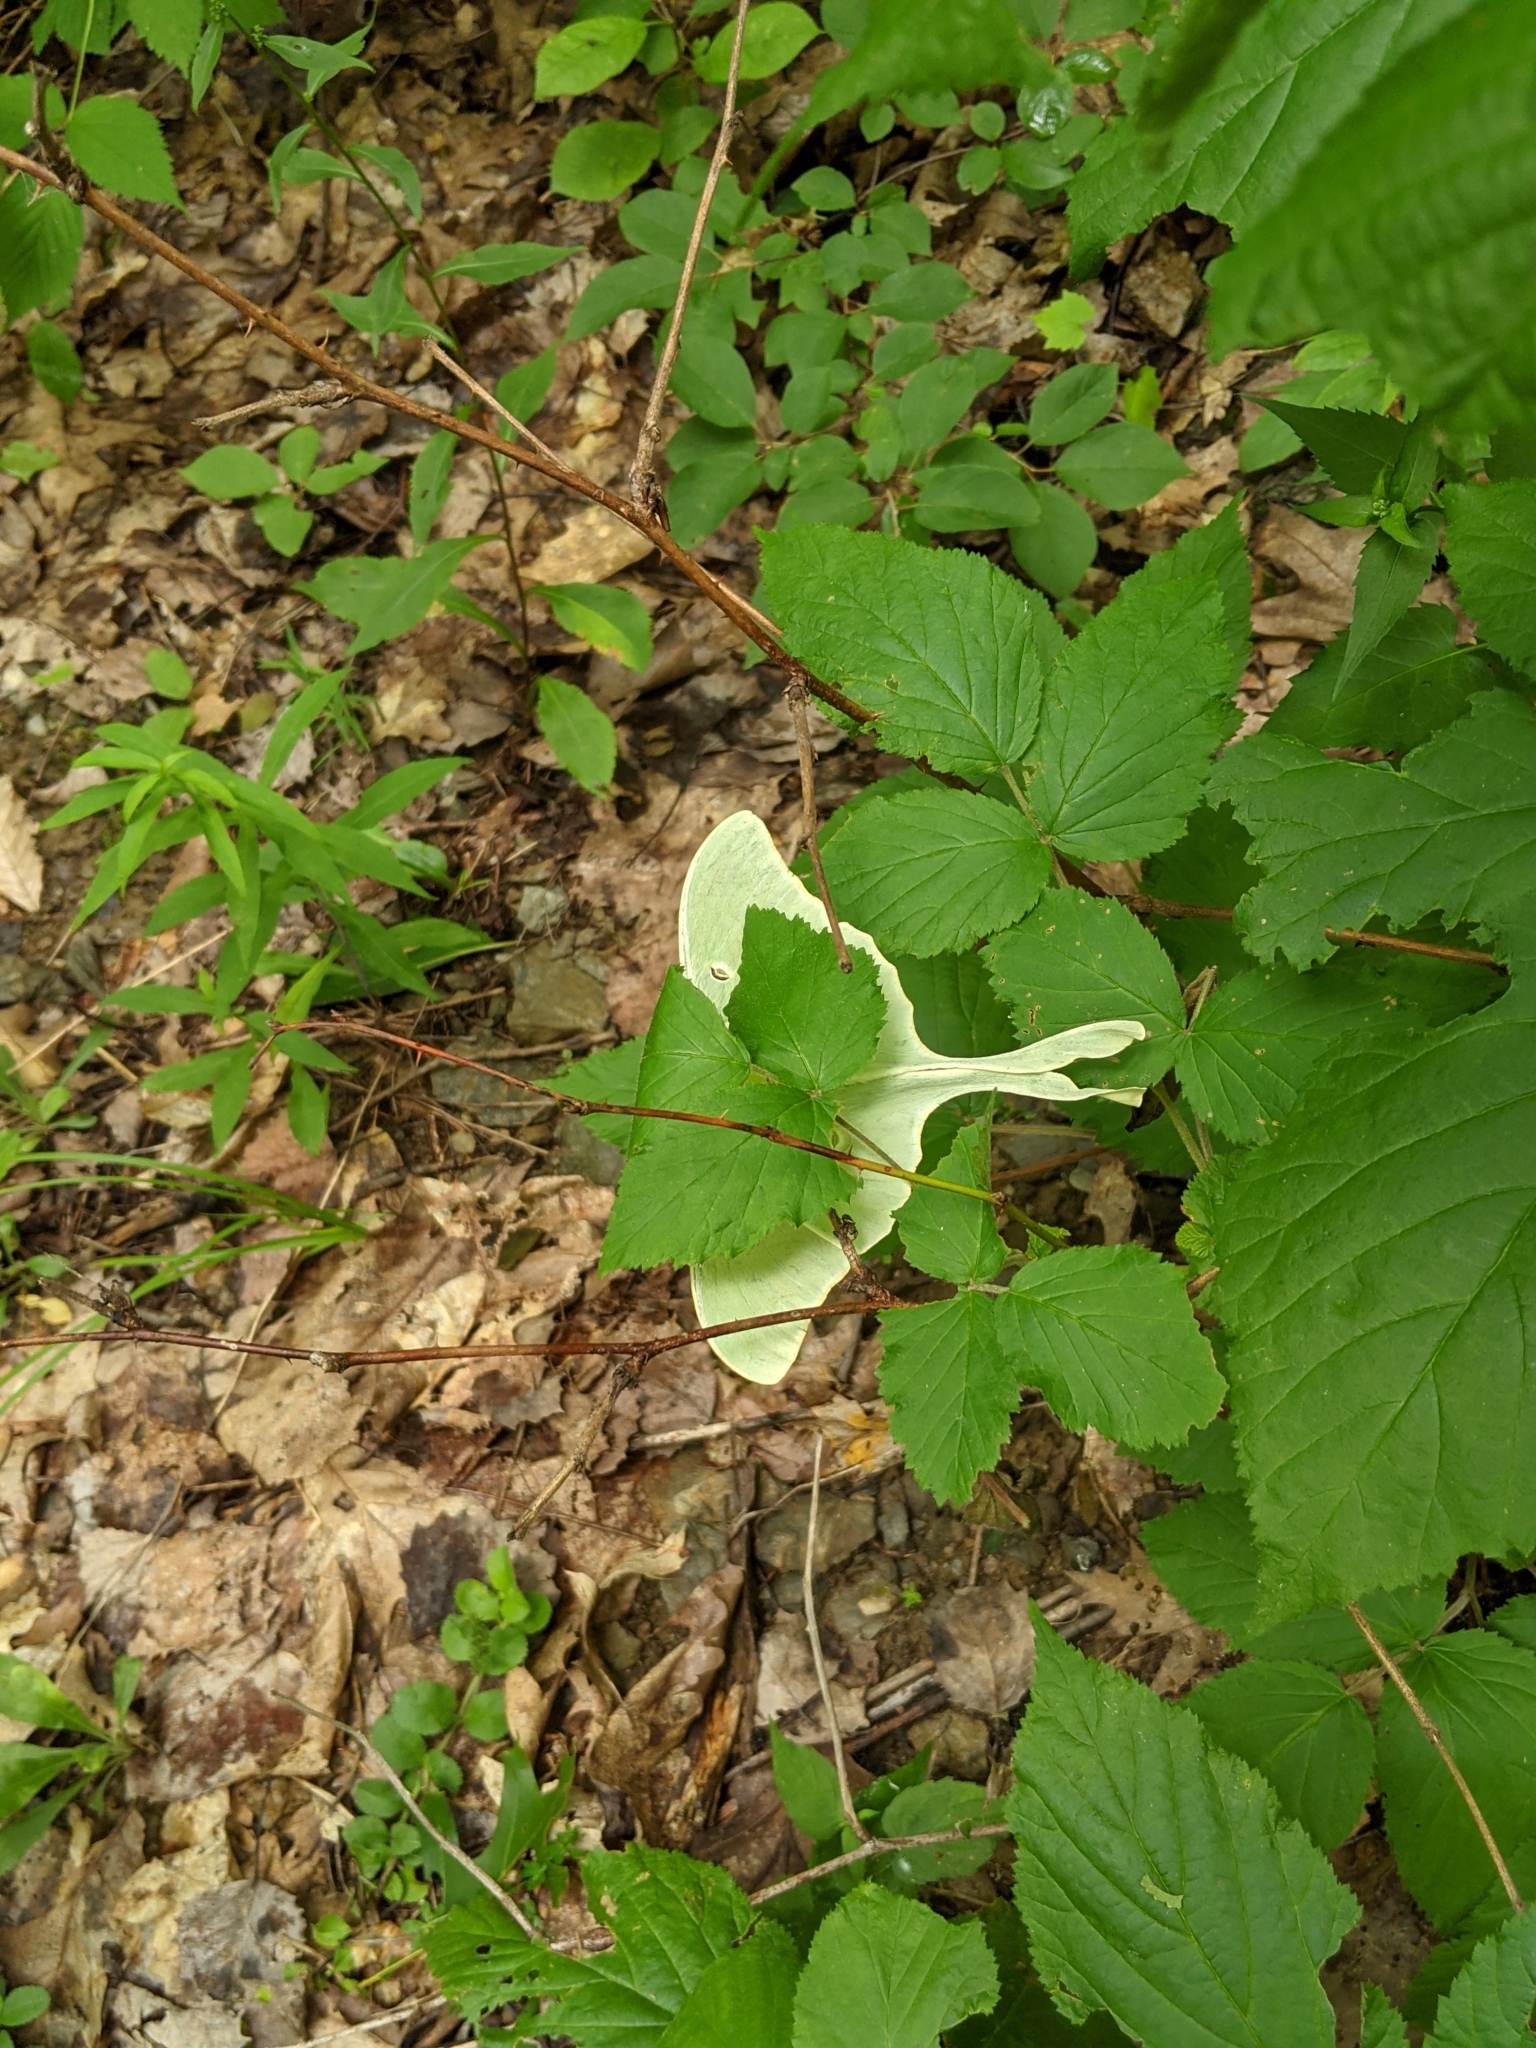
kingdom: Animalia
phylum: Arthropoda
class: Insecta
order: Lepidoptera
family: Saturniidae
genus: Actias
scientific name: Actias luna
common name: Luna moth
